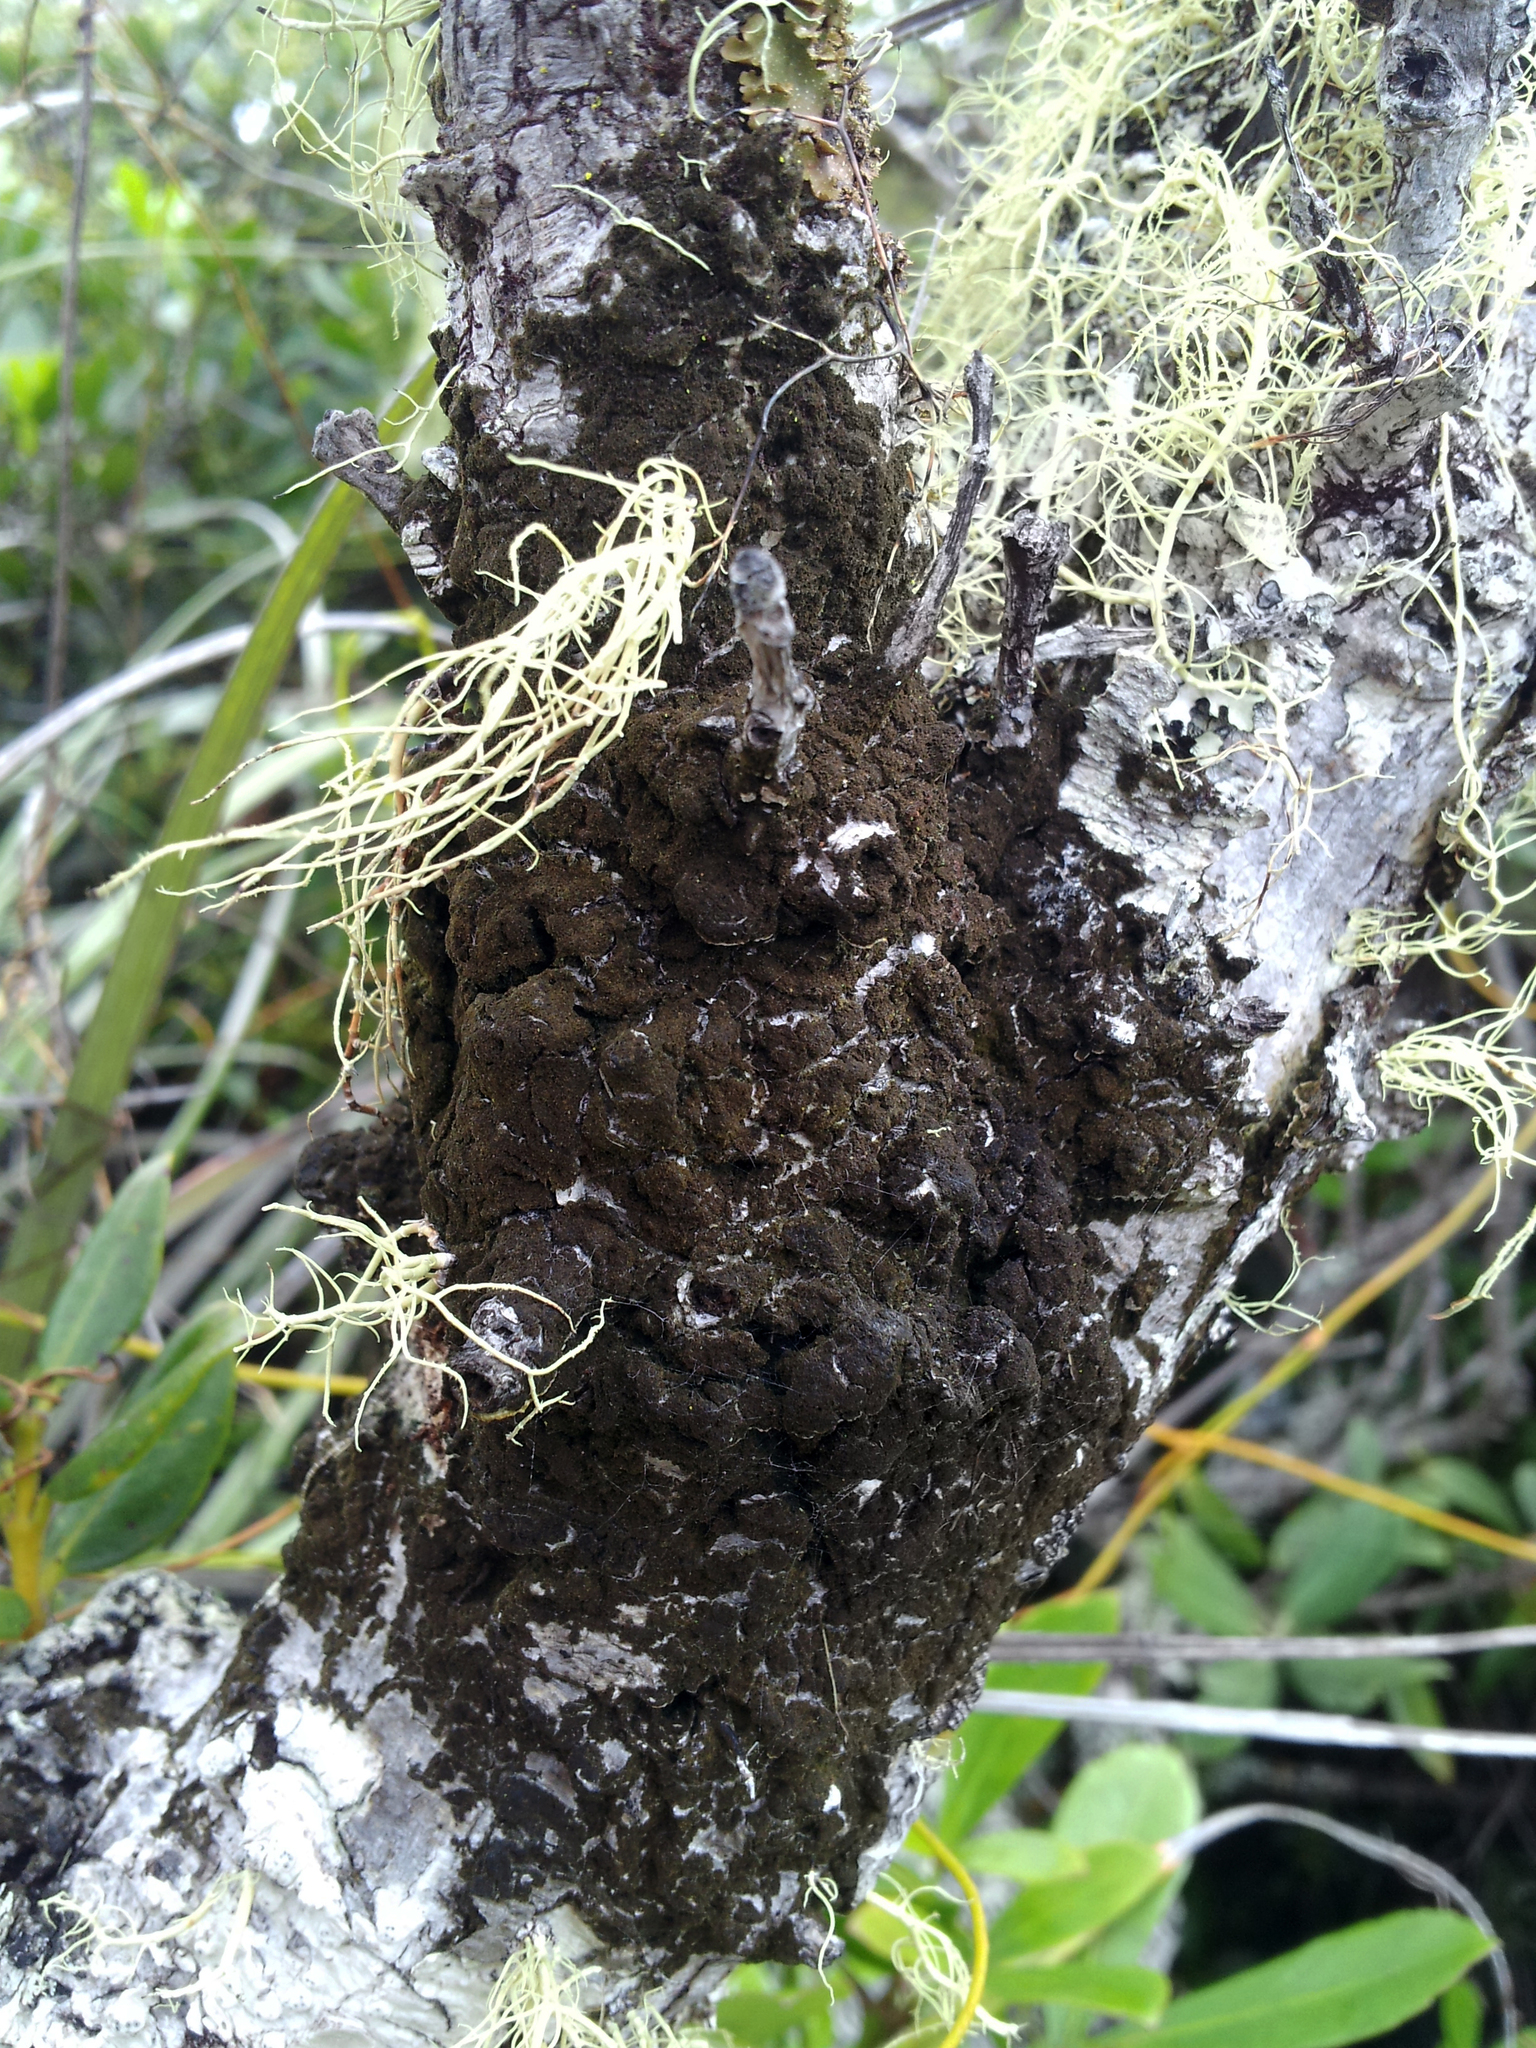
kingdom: Fungi
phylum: Basidiomycota
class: Agaricomycetes
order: Agaricales
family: Hygrophoraceae
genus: Dictyonema
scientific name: Dictyonema thelephora
